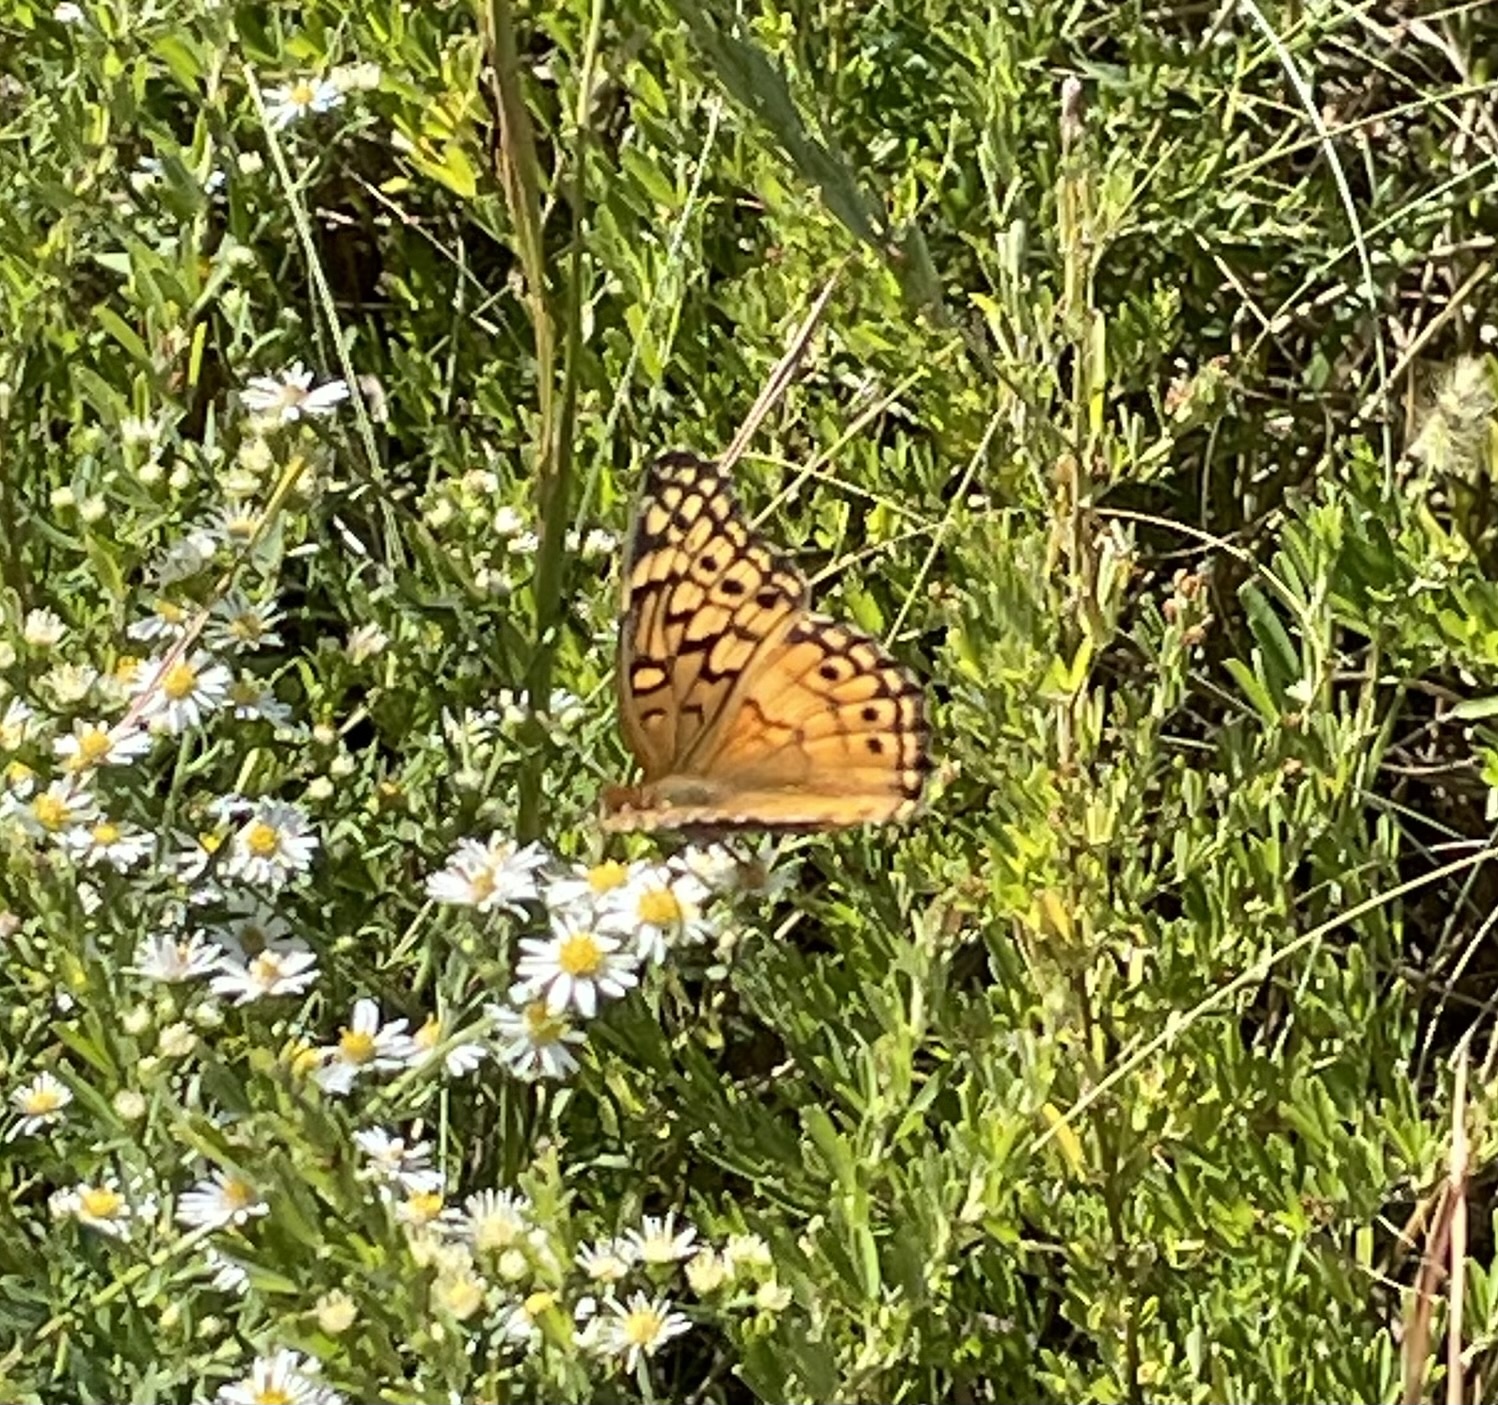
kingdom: Animalia
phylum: Arthropoda
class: Insecta
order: Lepidoptera
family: Nymphalidae
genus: Euptoieta
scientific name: Euptoieta claudia
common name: Variegated fritillary
